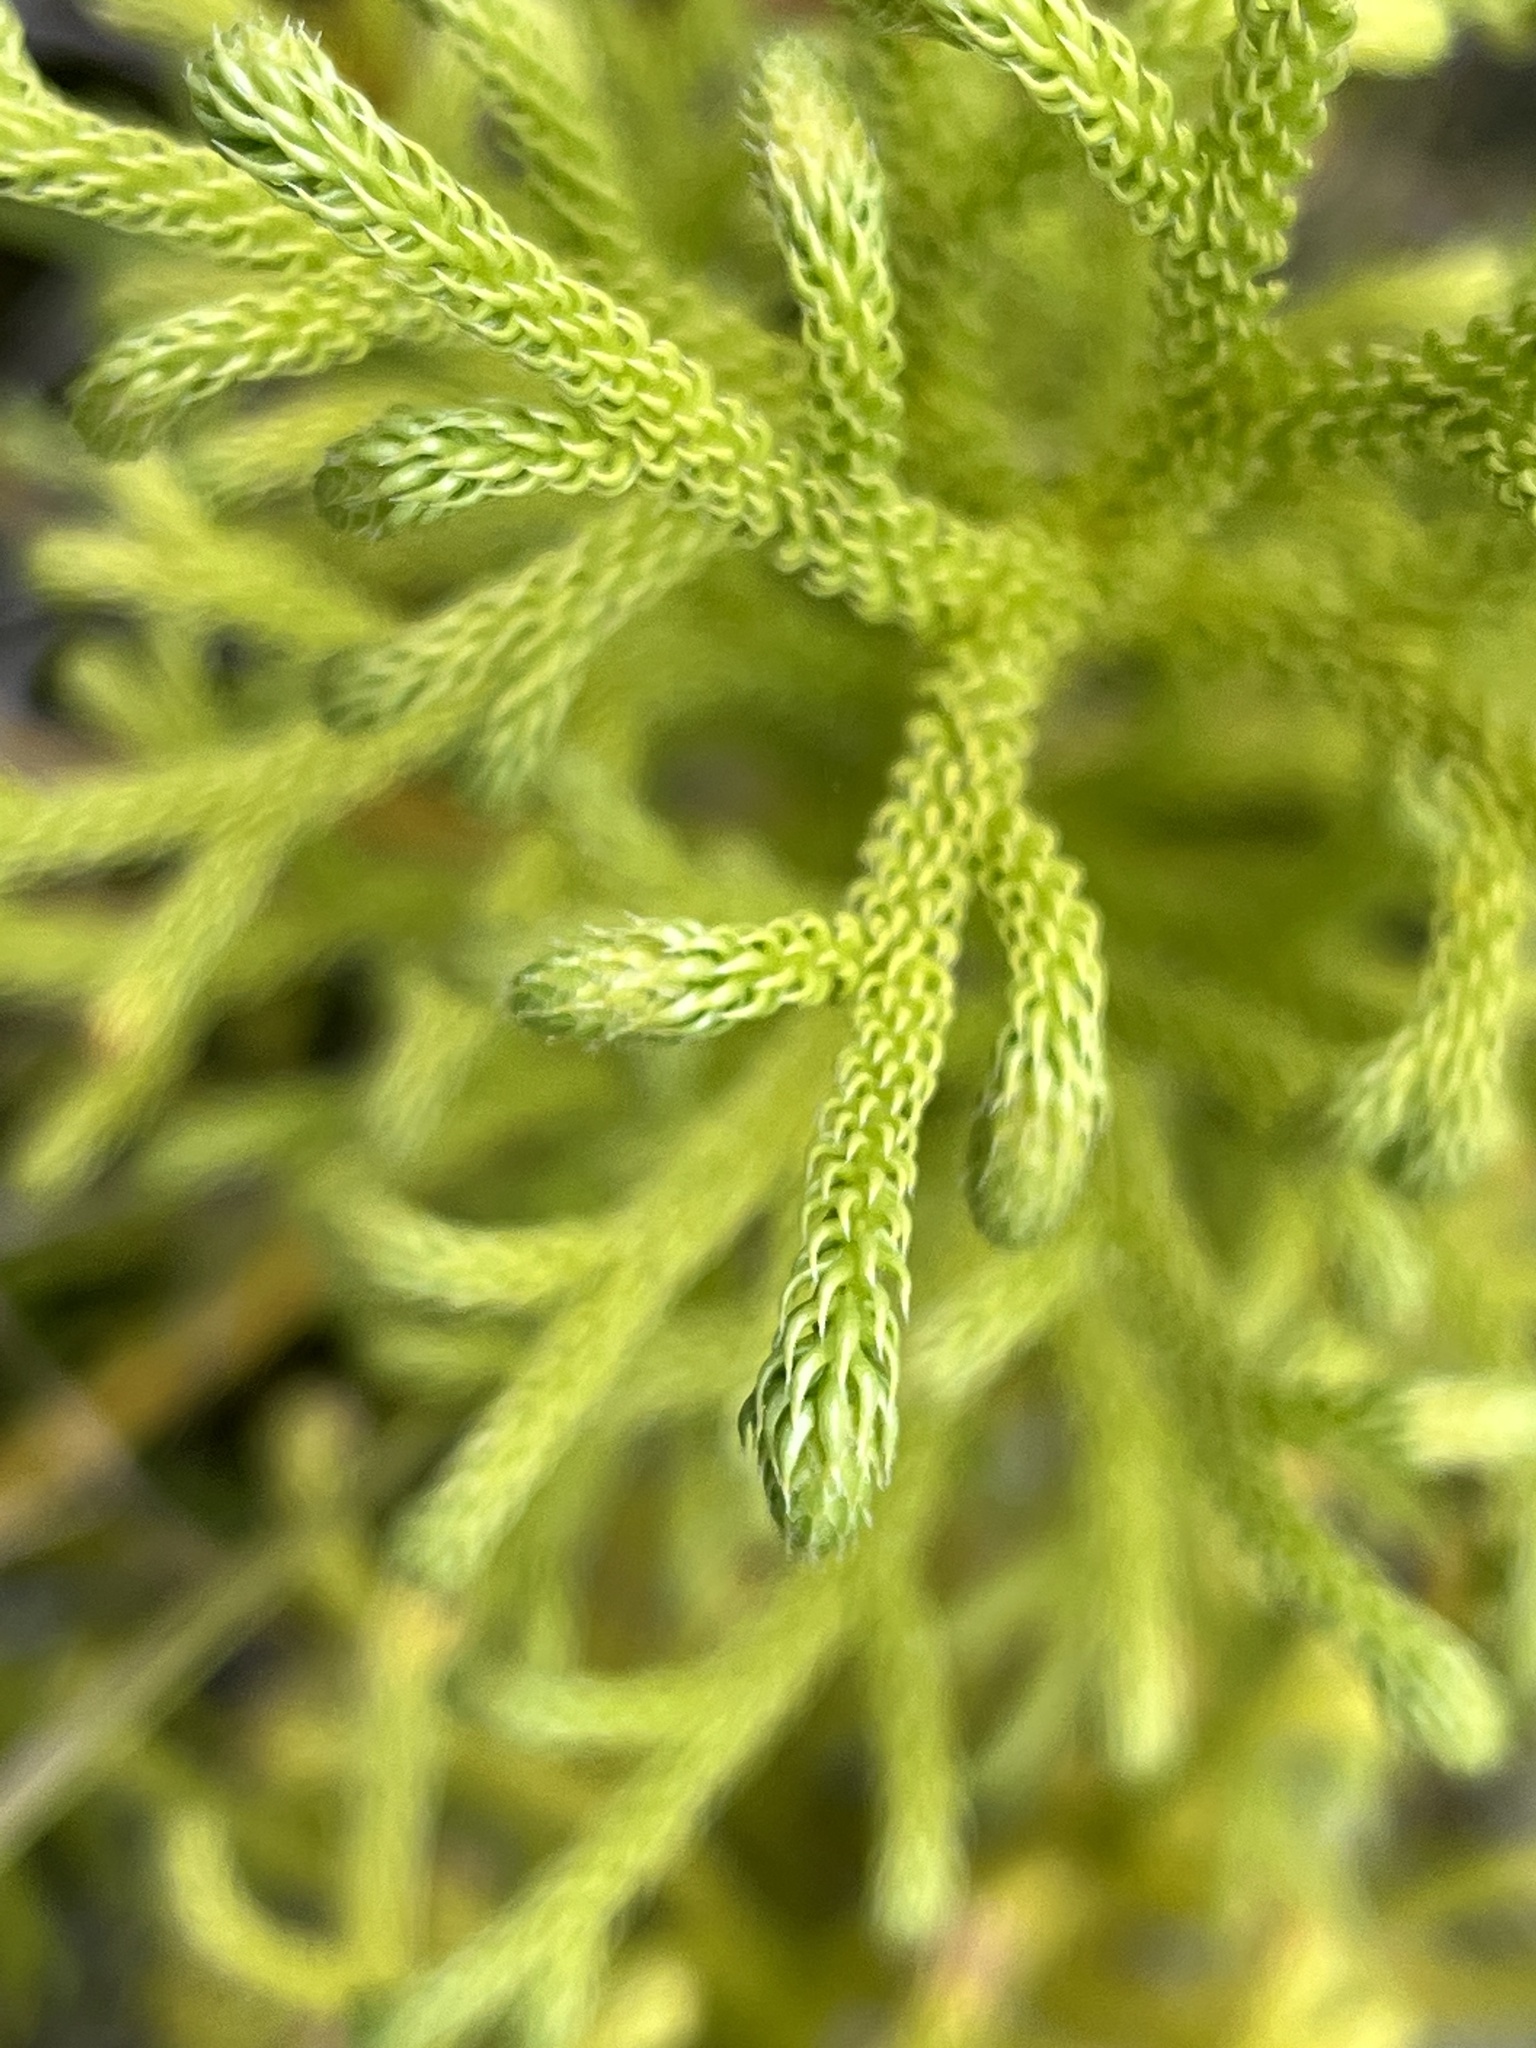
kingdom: Plantae
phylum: Tracheophyta
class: Lycopodiopsida
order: Lycopodiales
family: Lycopodiaceae
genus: Palhinhaea
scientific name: Palhinhaea cernua
